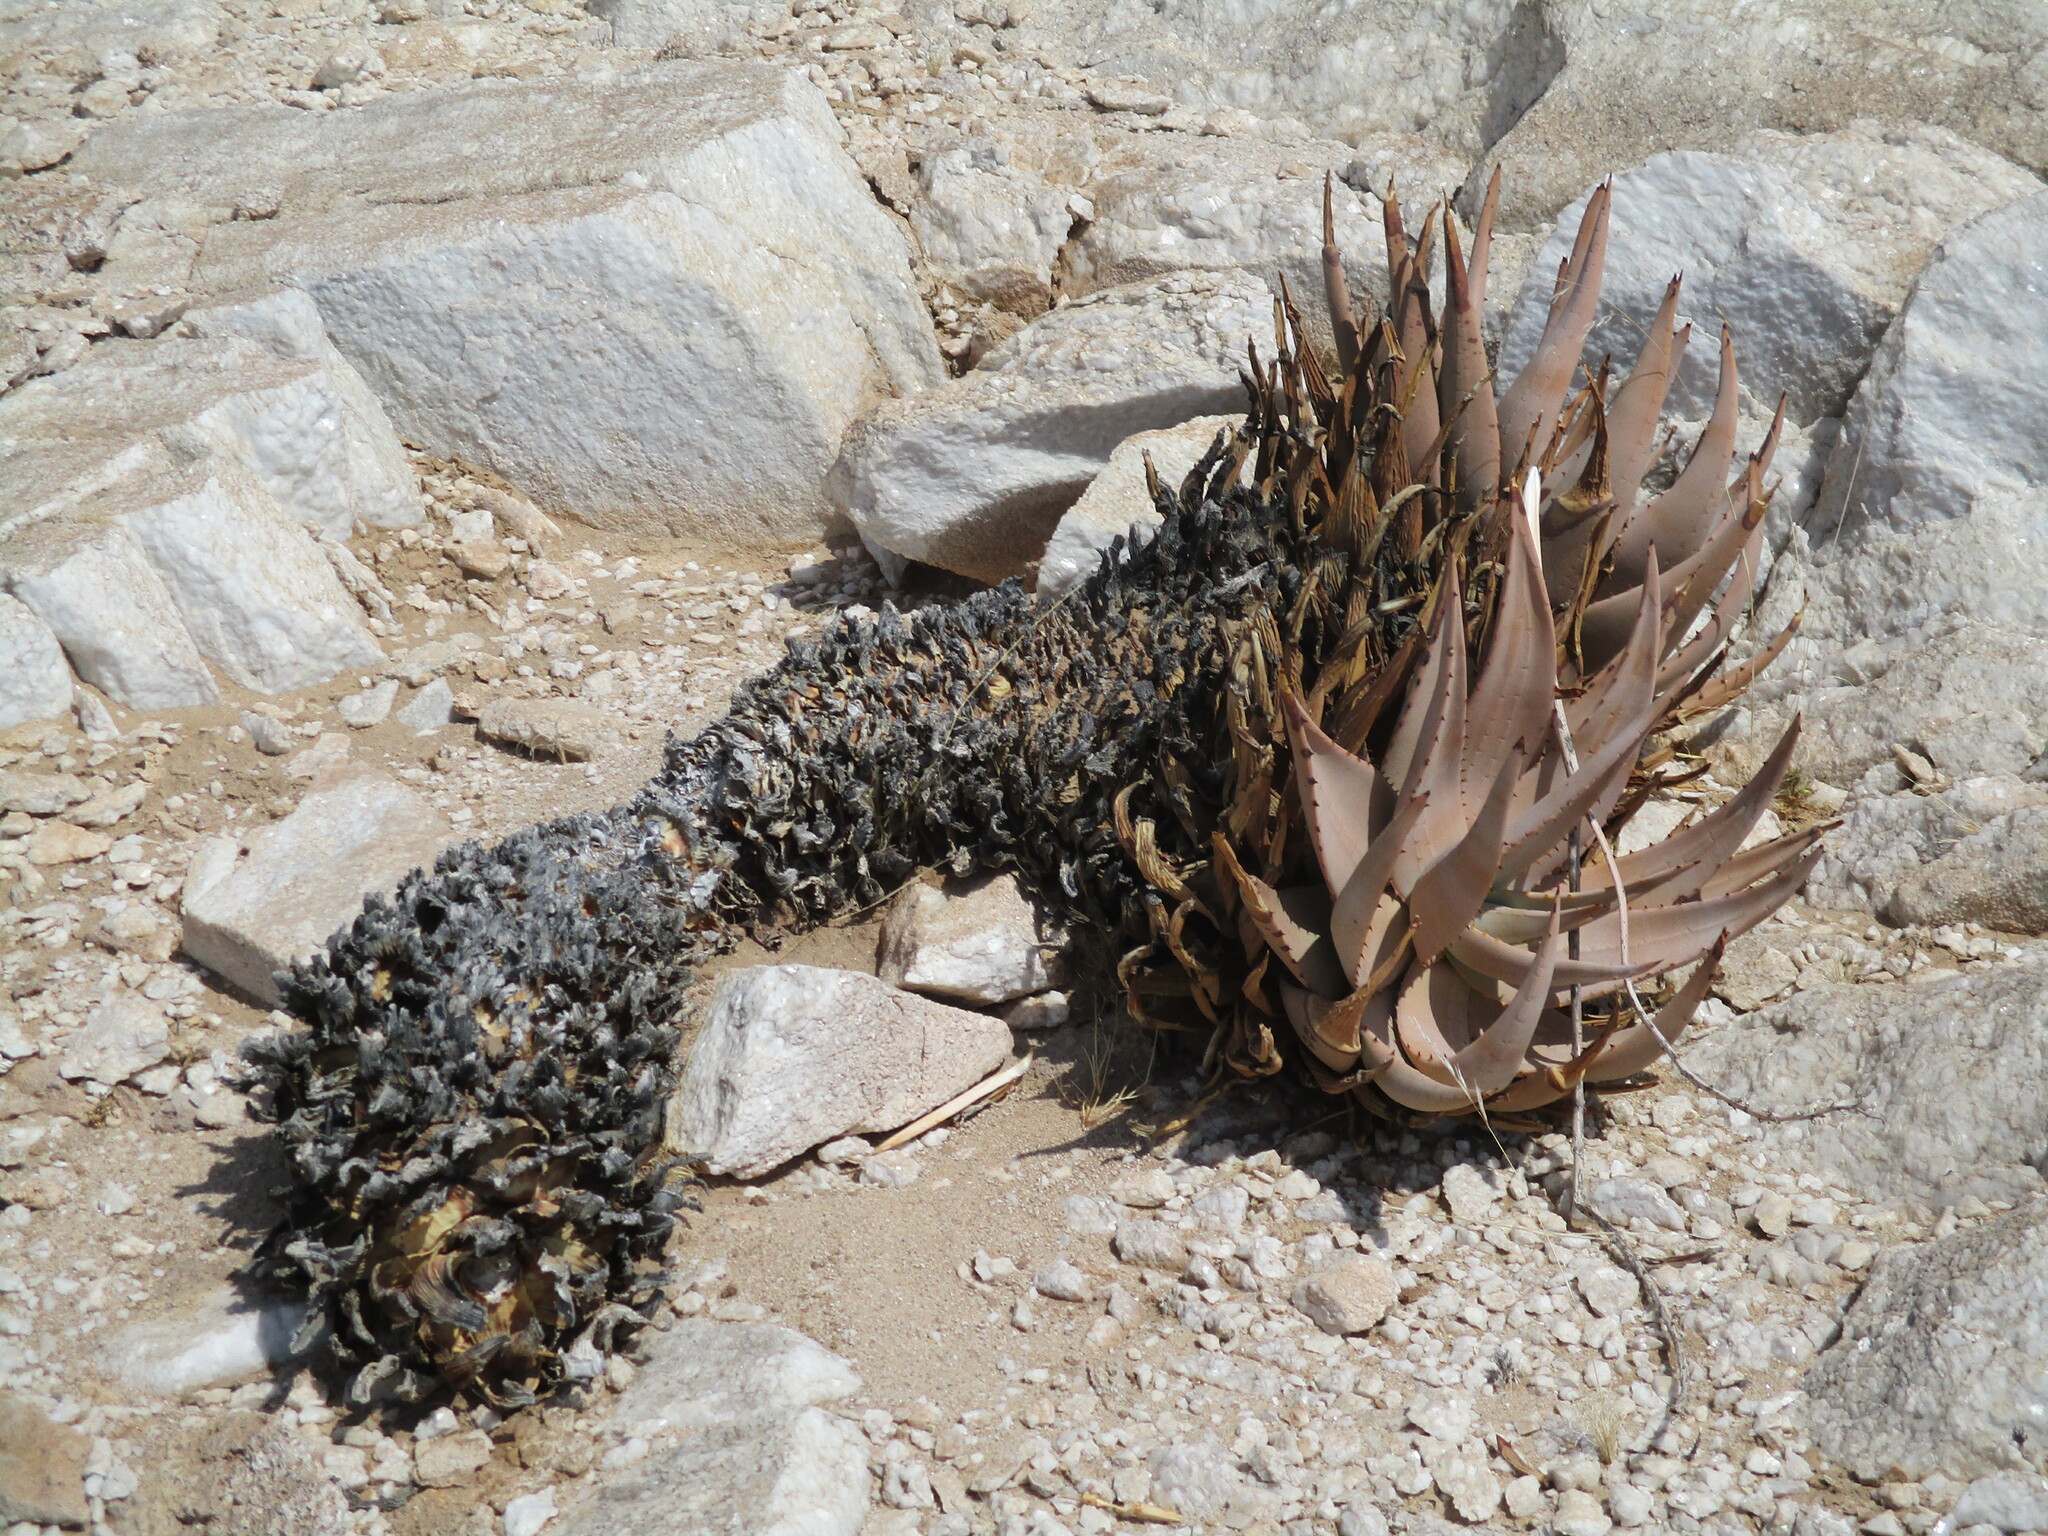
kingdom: Plantae
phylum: Tracheophyta
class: Liliopsida
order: Asparagales
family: Asphodelaceae
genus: Aloe
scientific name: Aloe asperifolia
